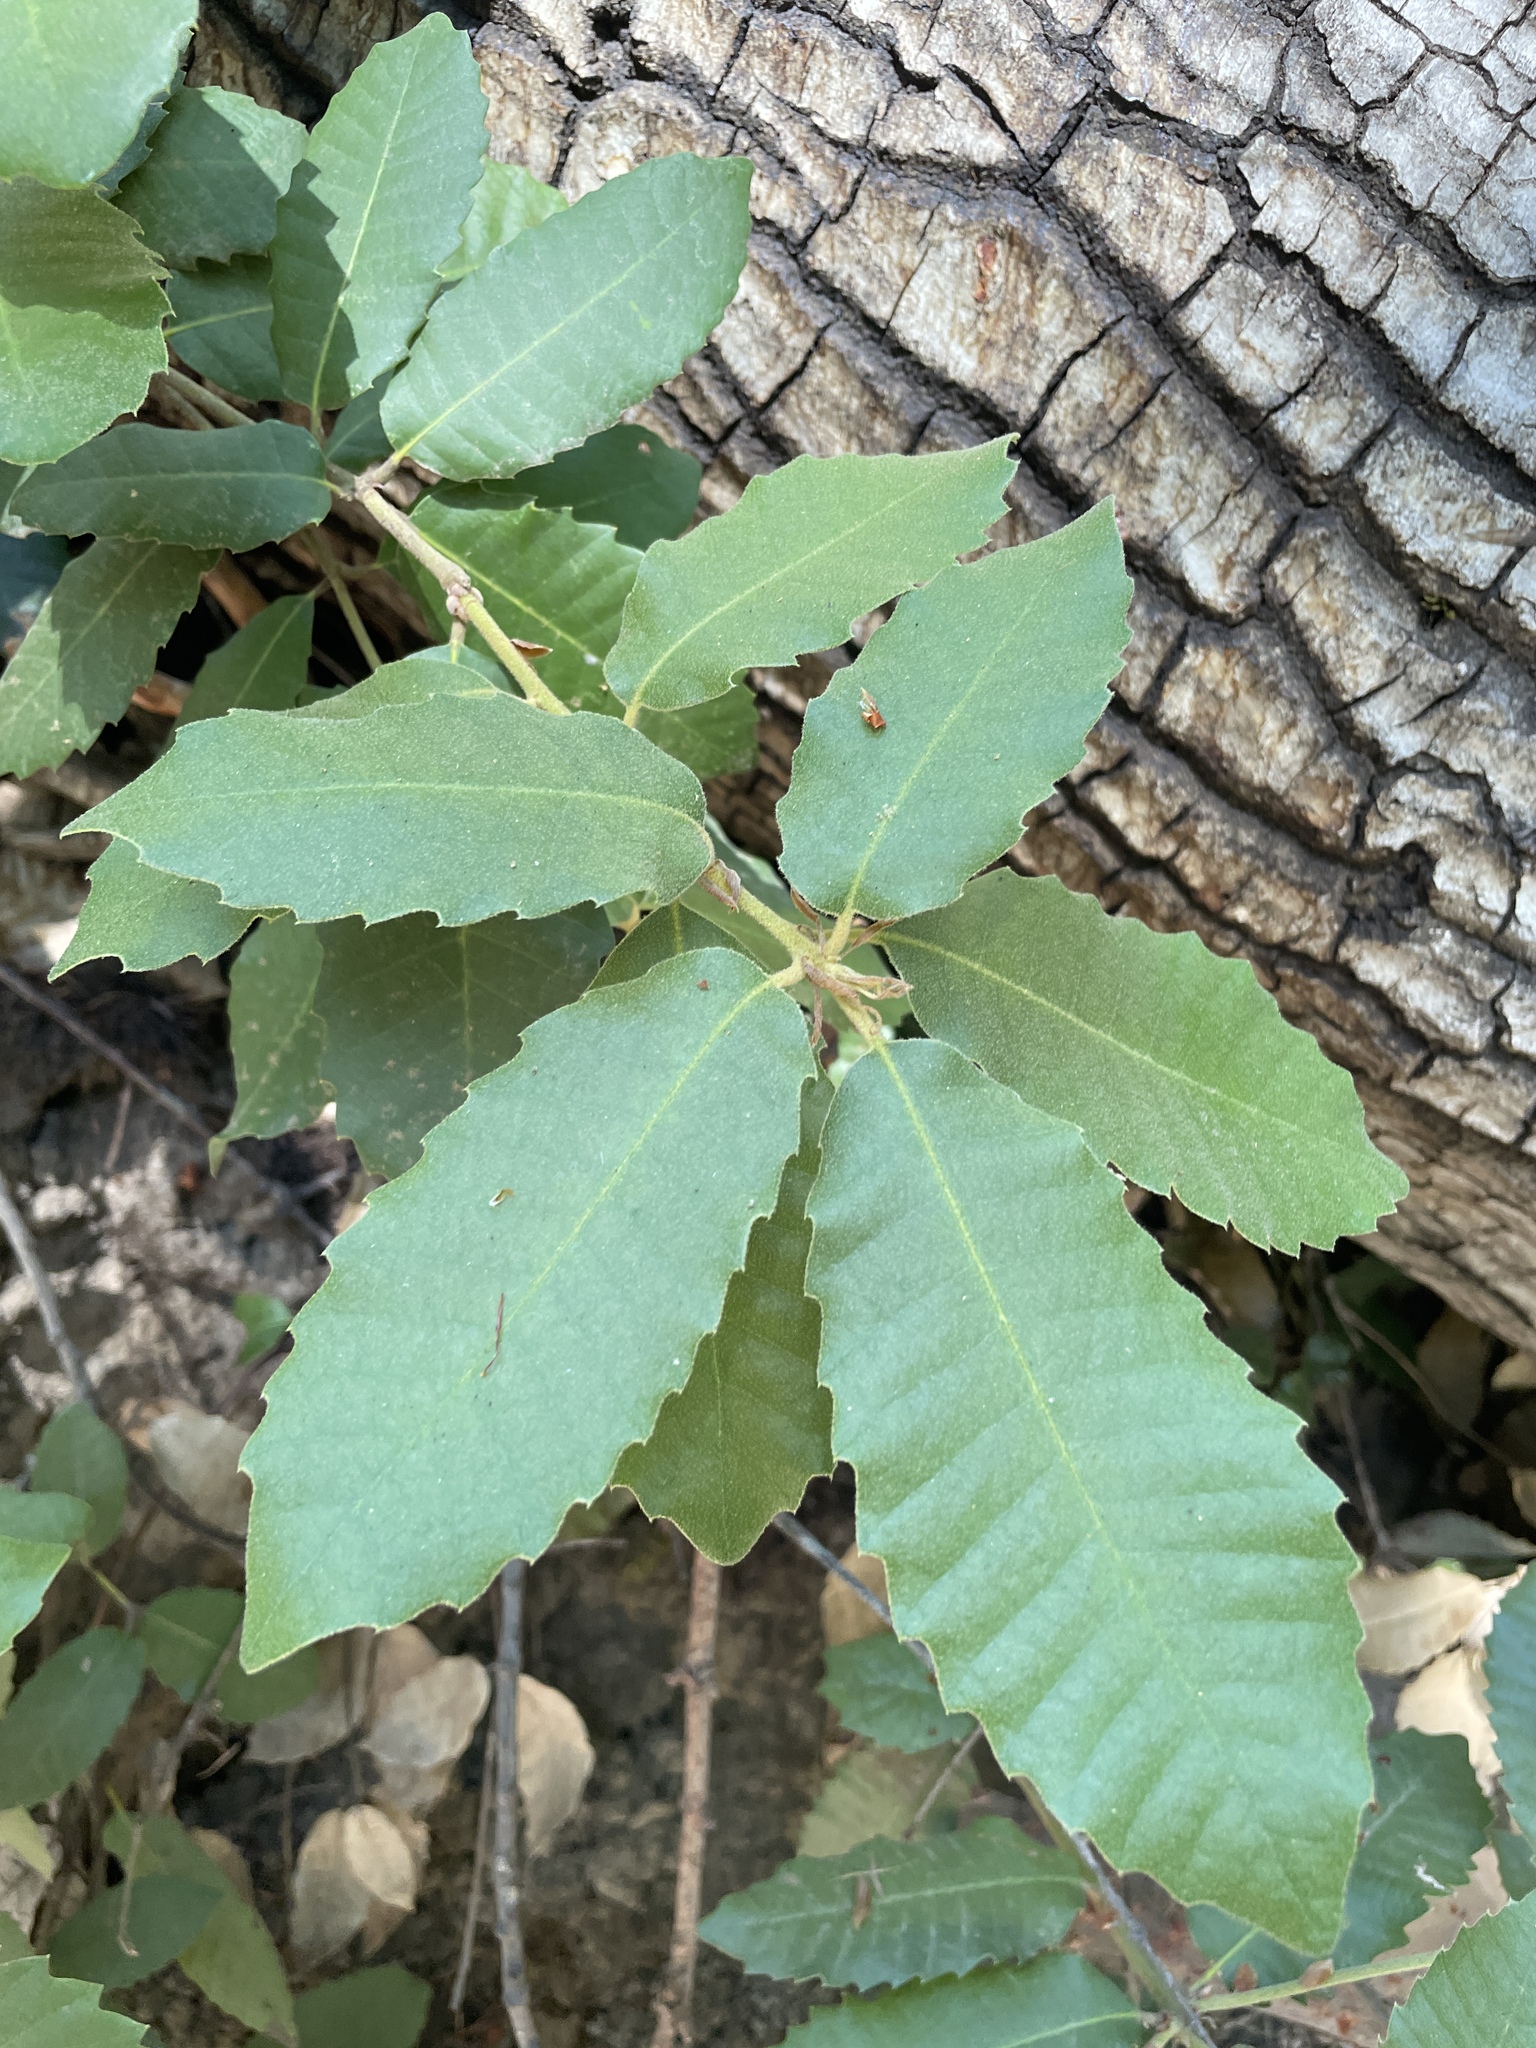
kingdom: Plantae
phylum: Tracheophyta
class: Magnoliopsida
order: Fagales
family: Fagaceae
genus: Notholithocarpus
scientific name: Notholithocarpus densiflorus
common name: Tan bark oak
